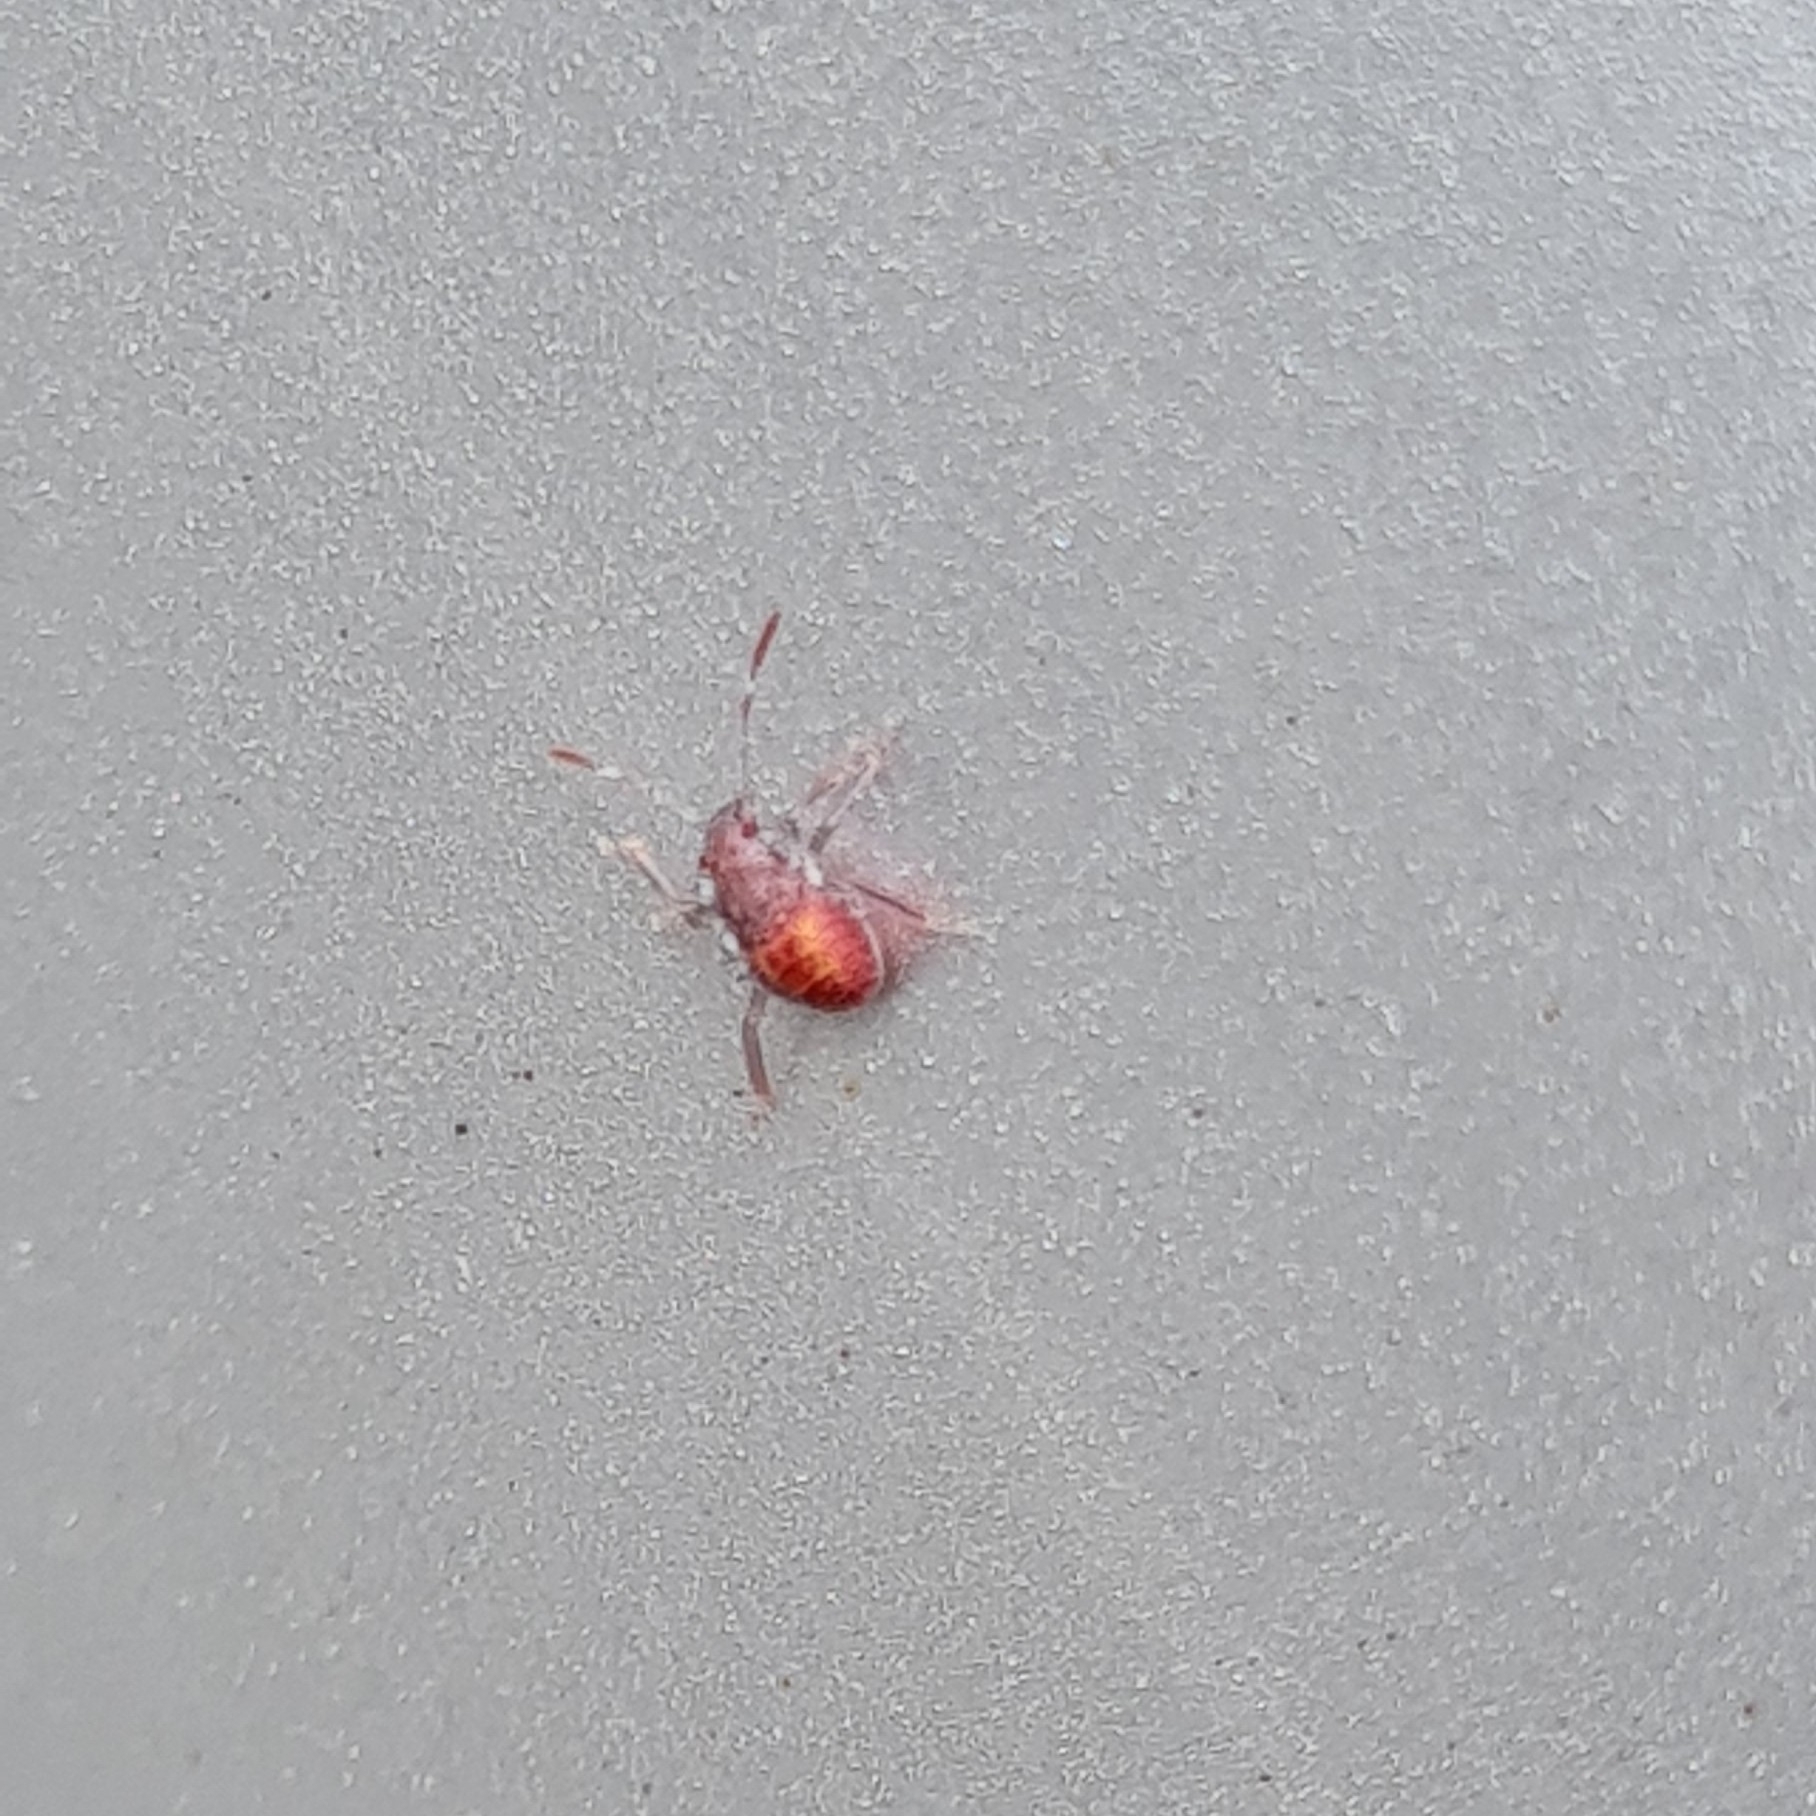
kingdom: Animalia
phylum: Arthropoda
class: Insecta
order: Hemiptera
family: Pentatomidae
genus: Halyomorpha
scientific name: Halyomorpha halys
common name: Brown marmorated stink bug
